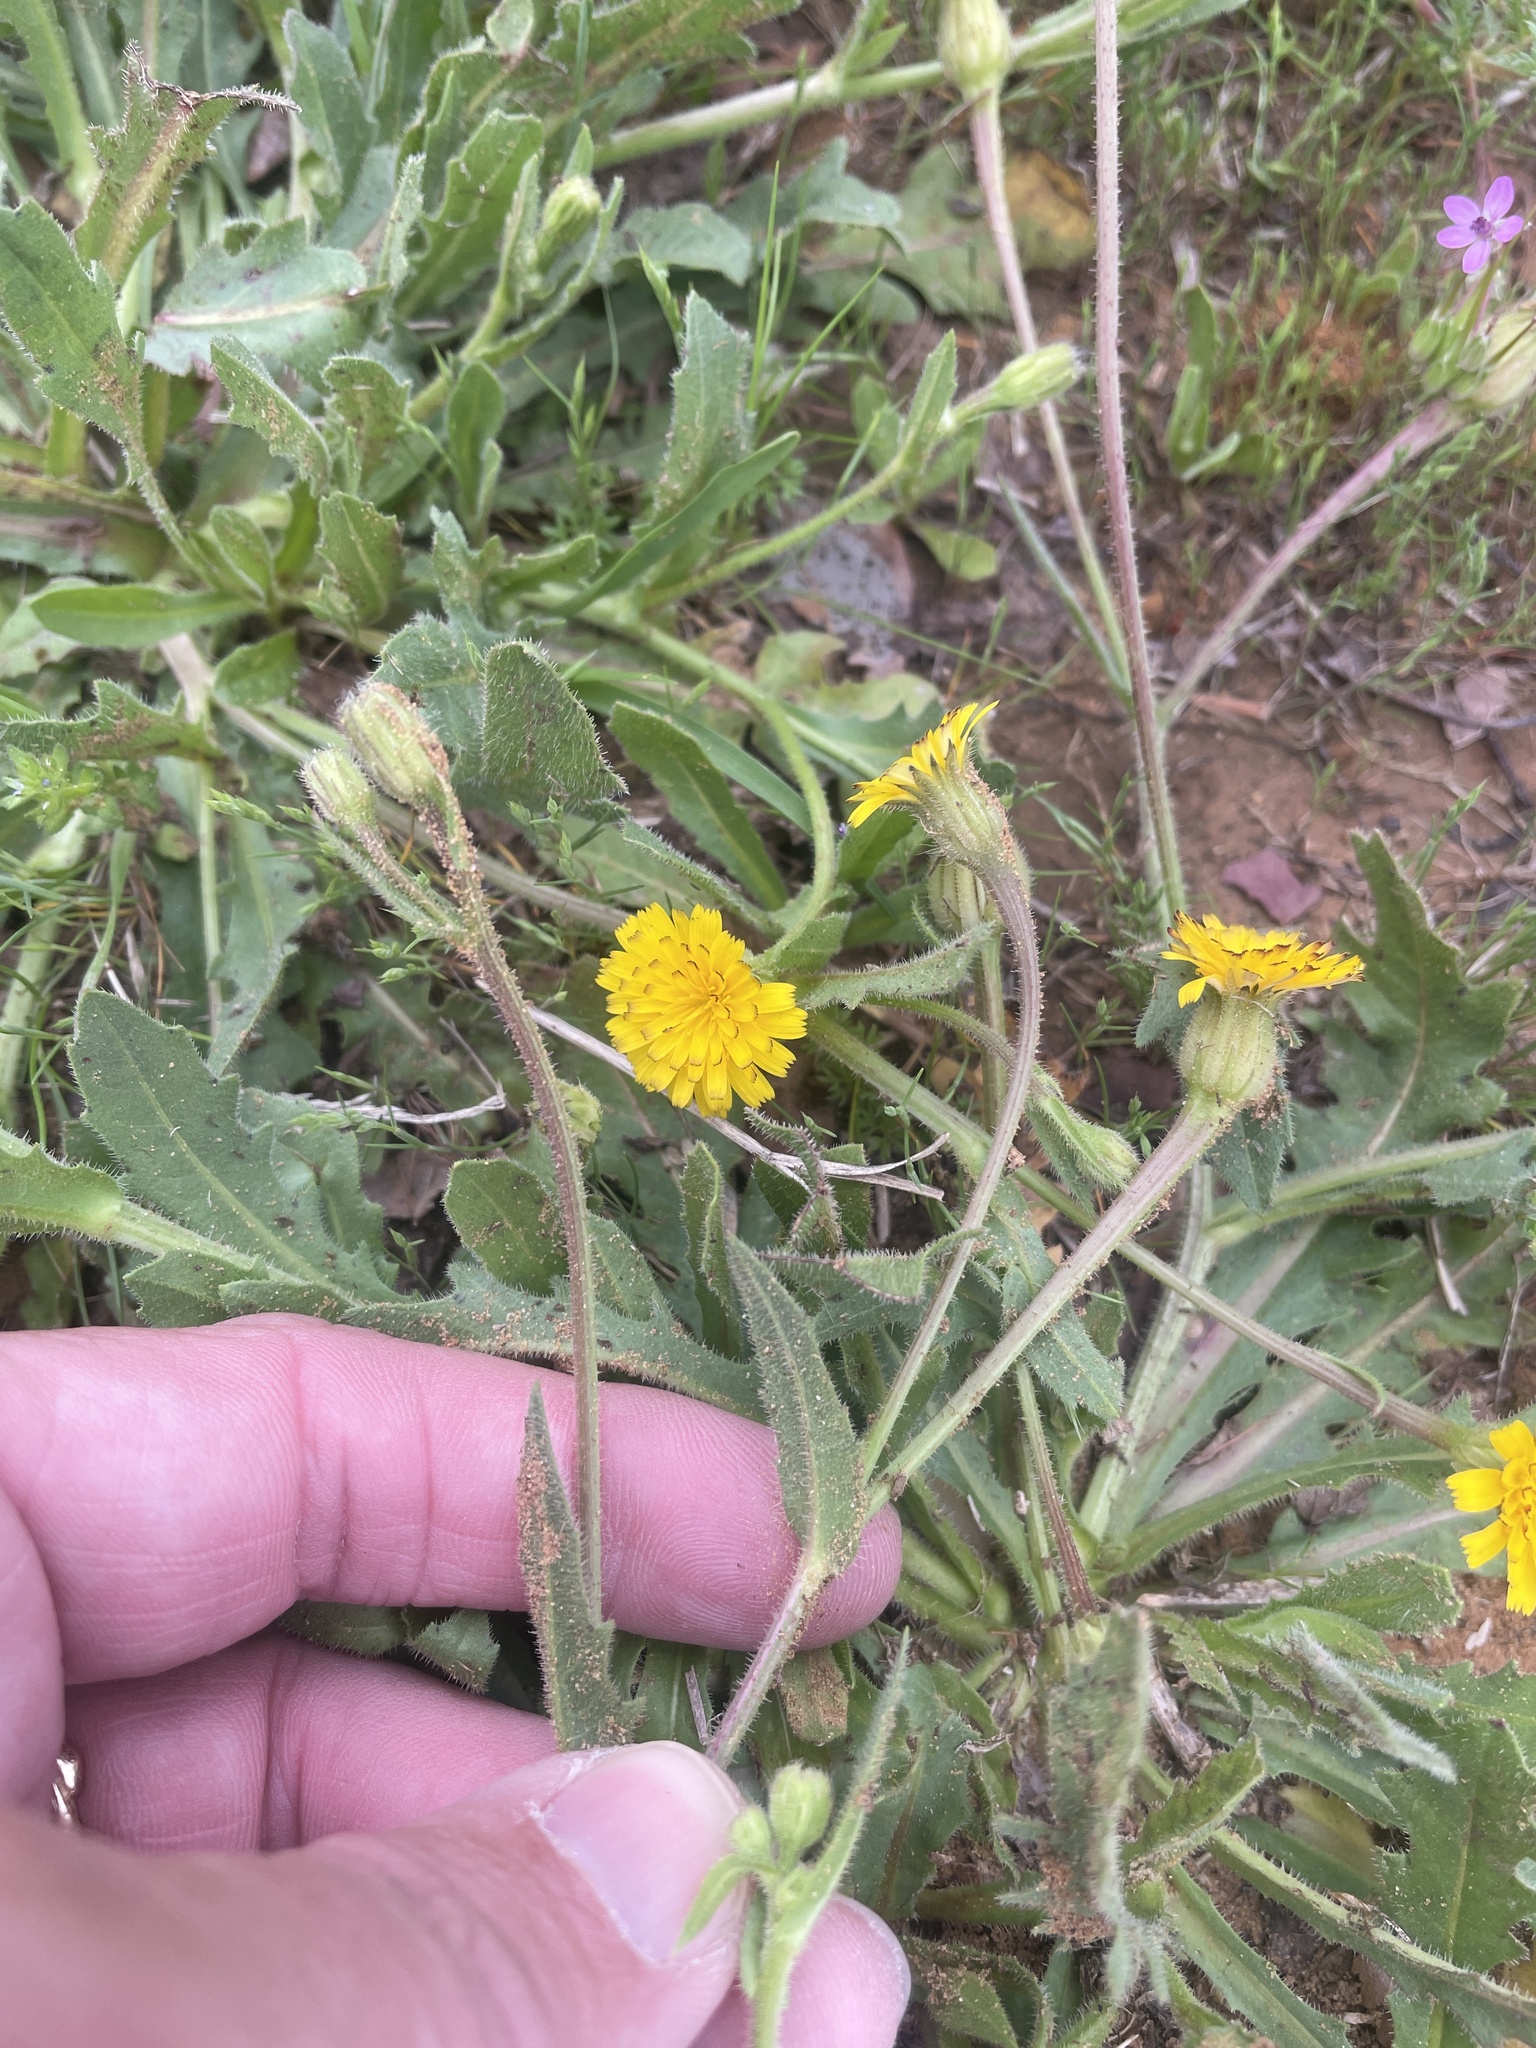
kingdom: Plantae
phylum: Tracheophyta
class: Magnoliopsida
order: Asterales
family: Asteraceae
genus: Hedypnois
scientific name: Hedypnois rhagadioloides
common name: Cretan weed
